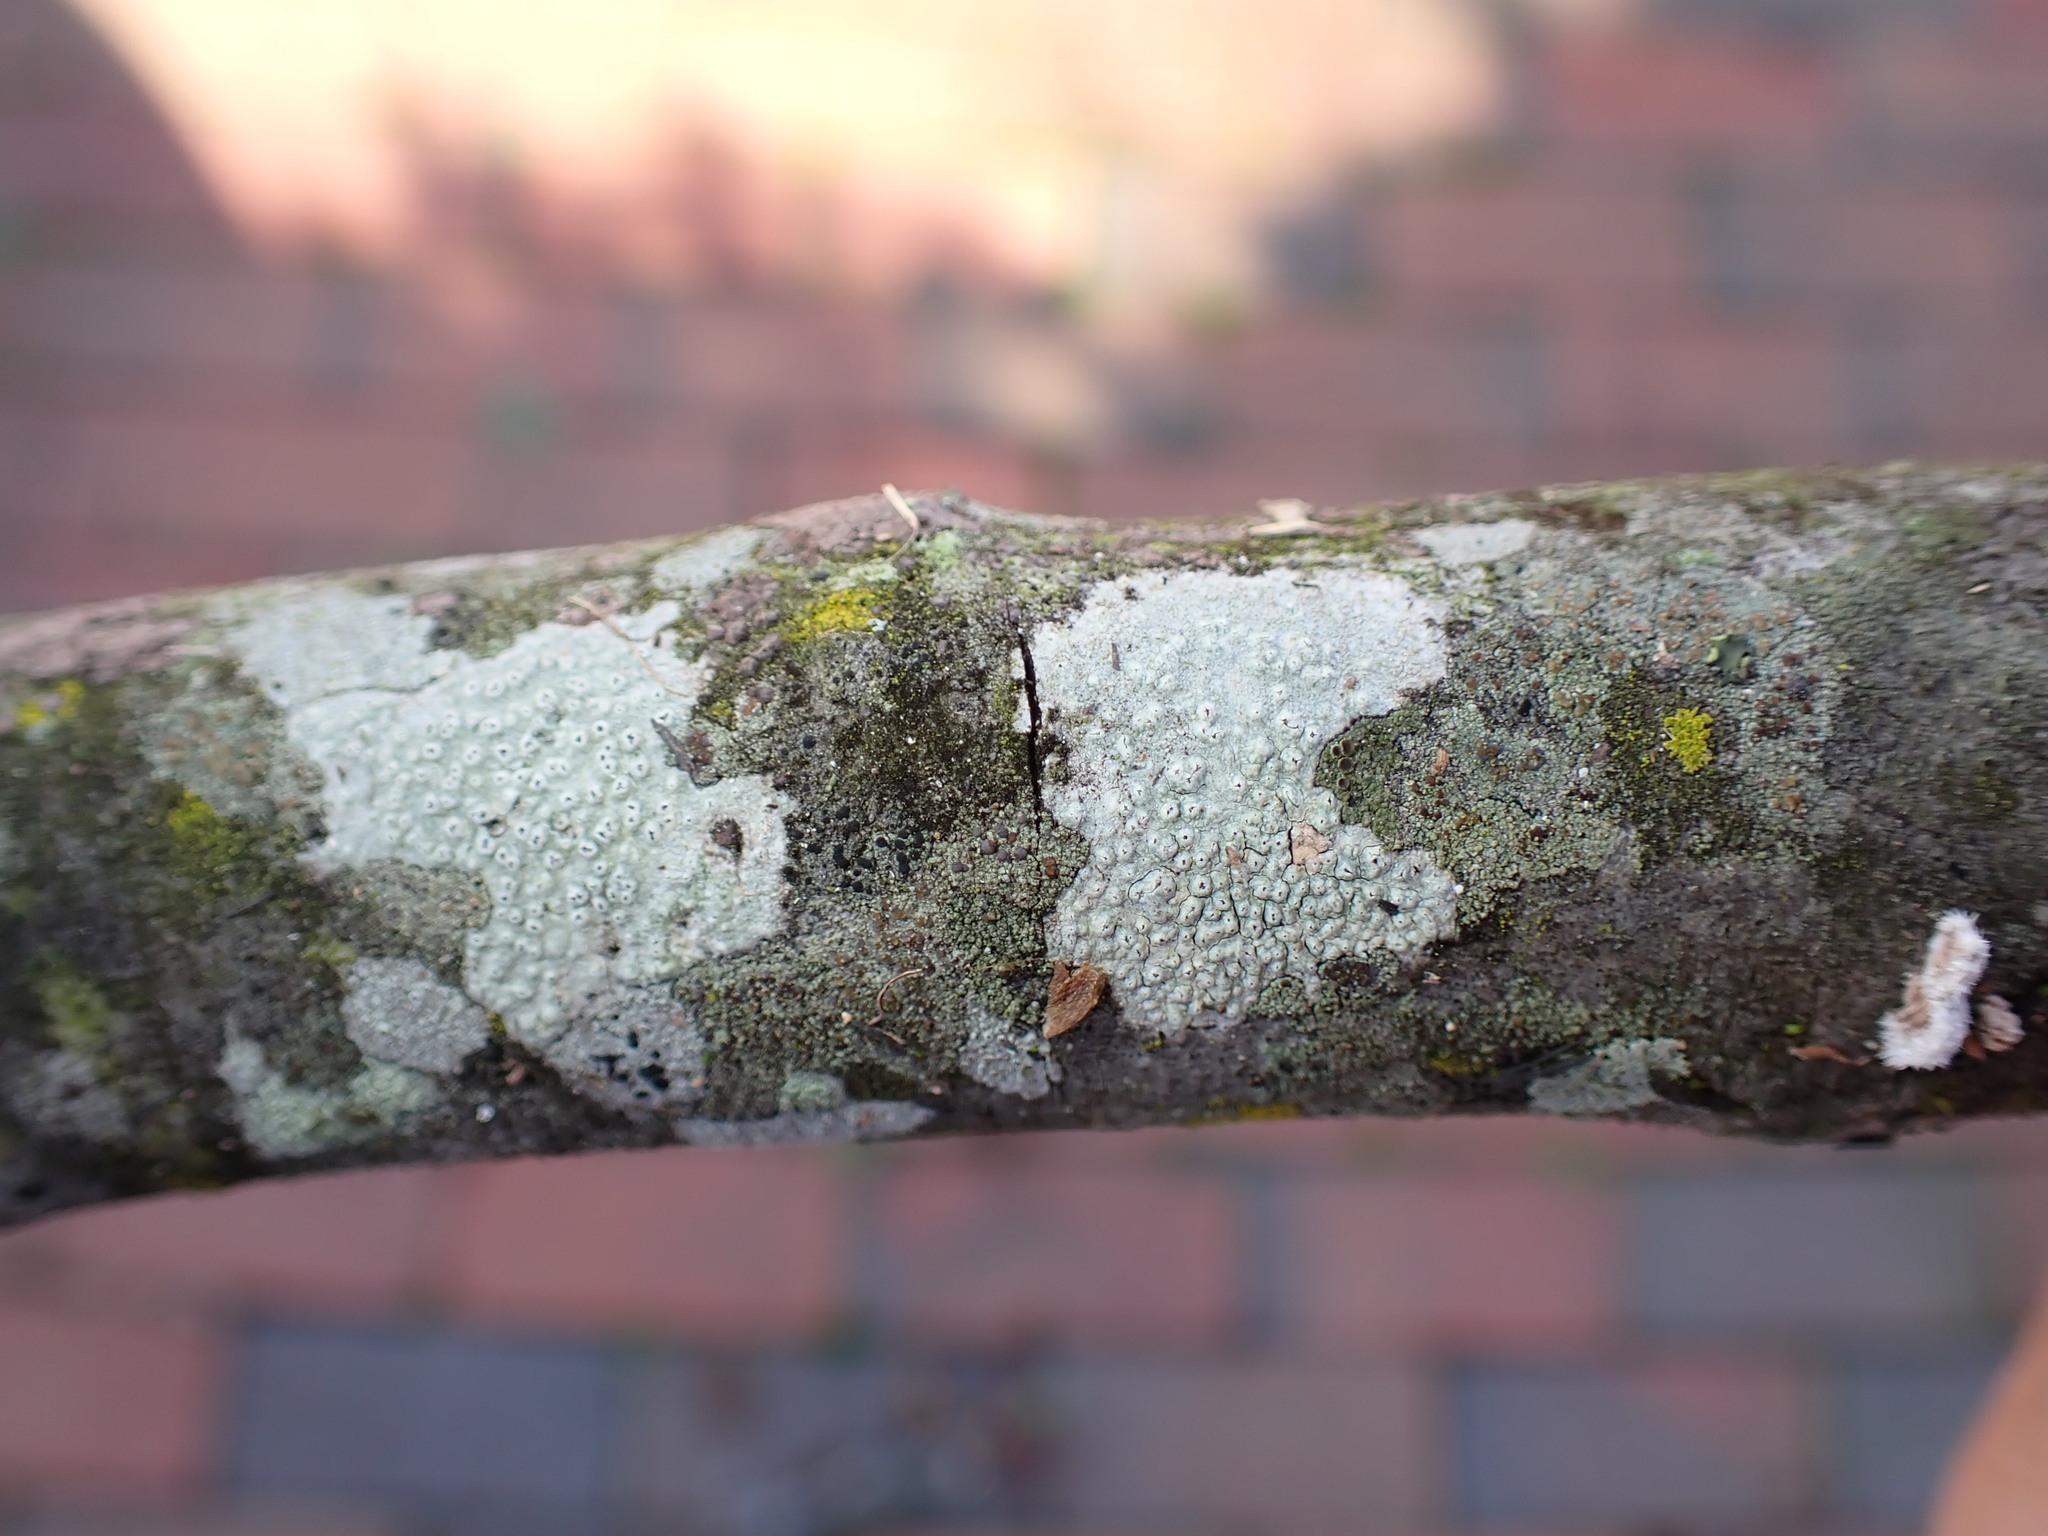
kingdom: Fungi
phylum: Ascomycota
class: Lecanoromycetes
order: Pertusariales
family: Pertusariaceae
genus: Pertusaria
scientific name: Pertusaria pustulata
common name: Branch bumps
